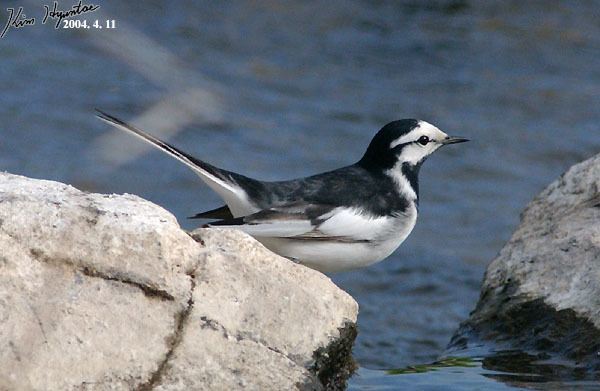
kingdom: Animalia
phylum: Chordata
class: Aves
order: Passeriformes
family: Motacillidae
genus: Motacilla
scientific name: Motacilla alba
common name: White wagtail
